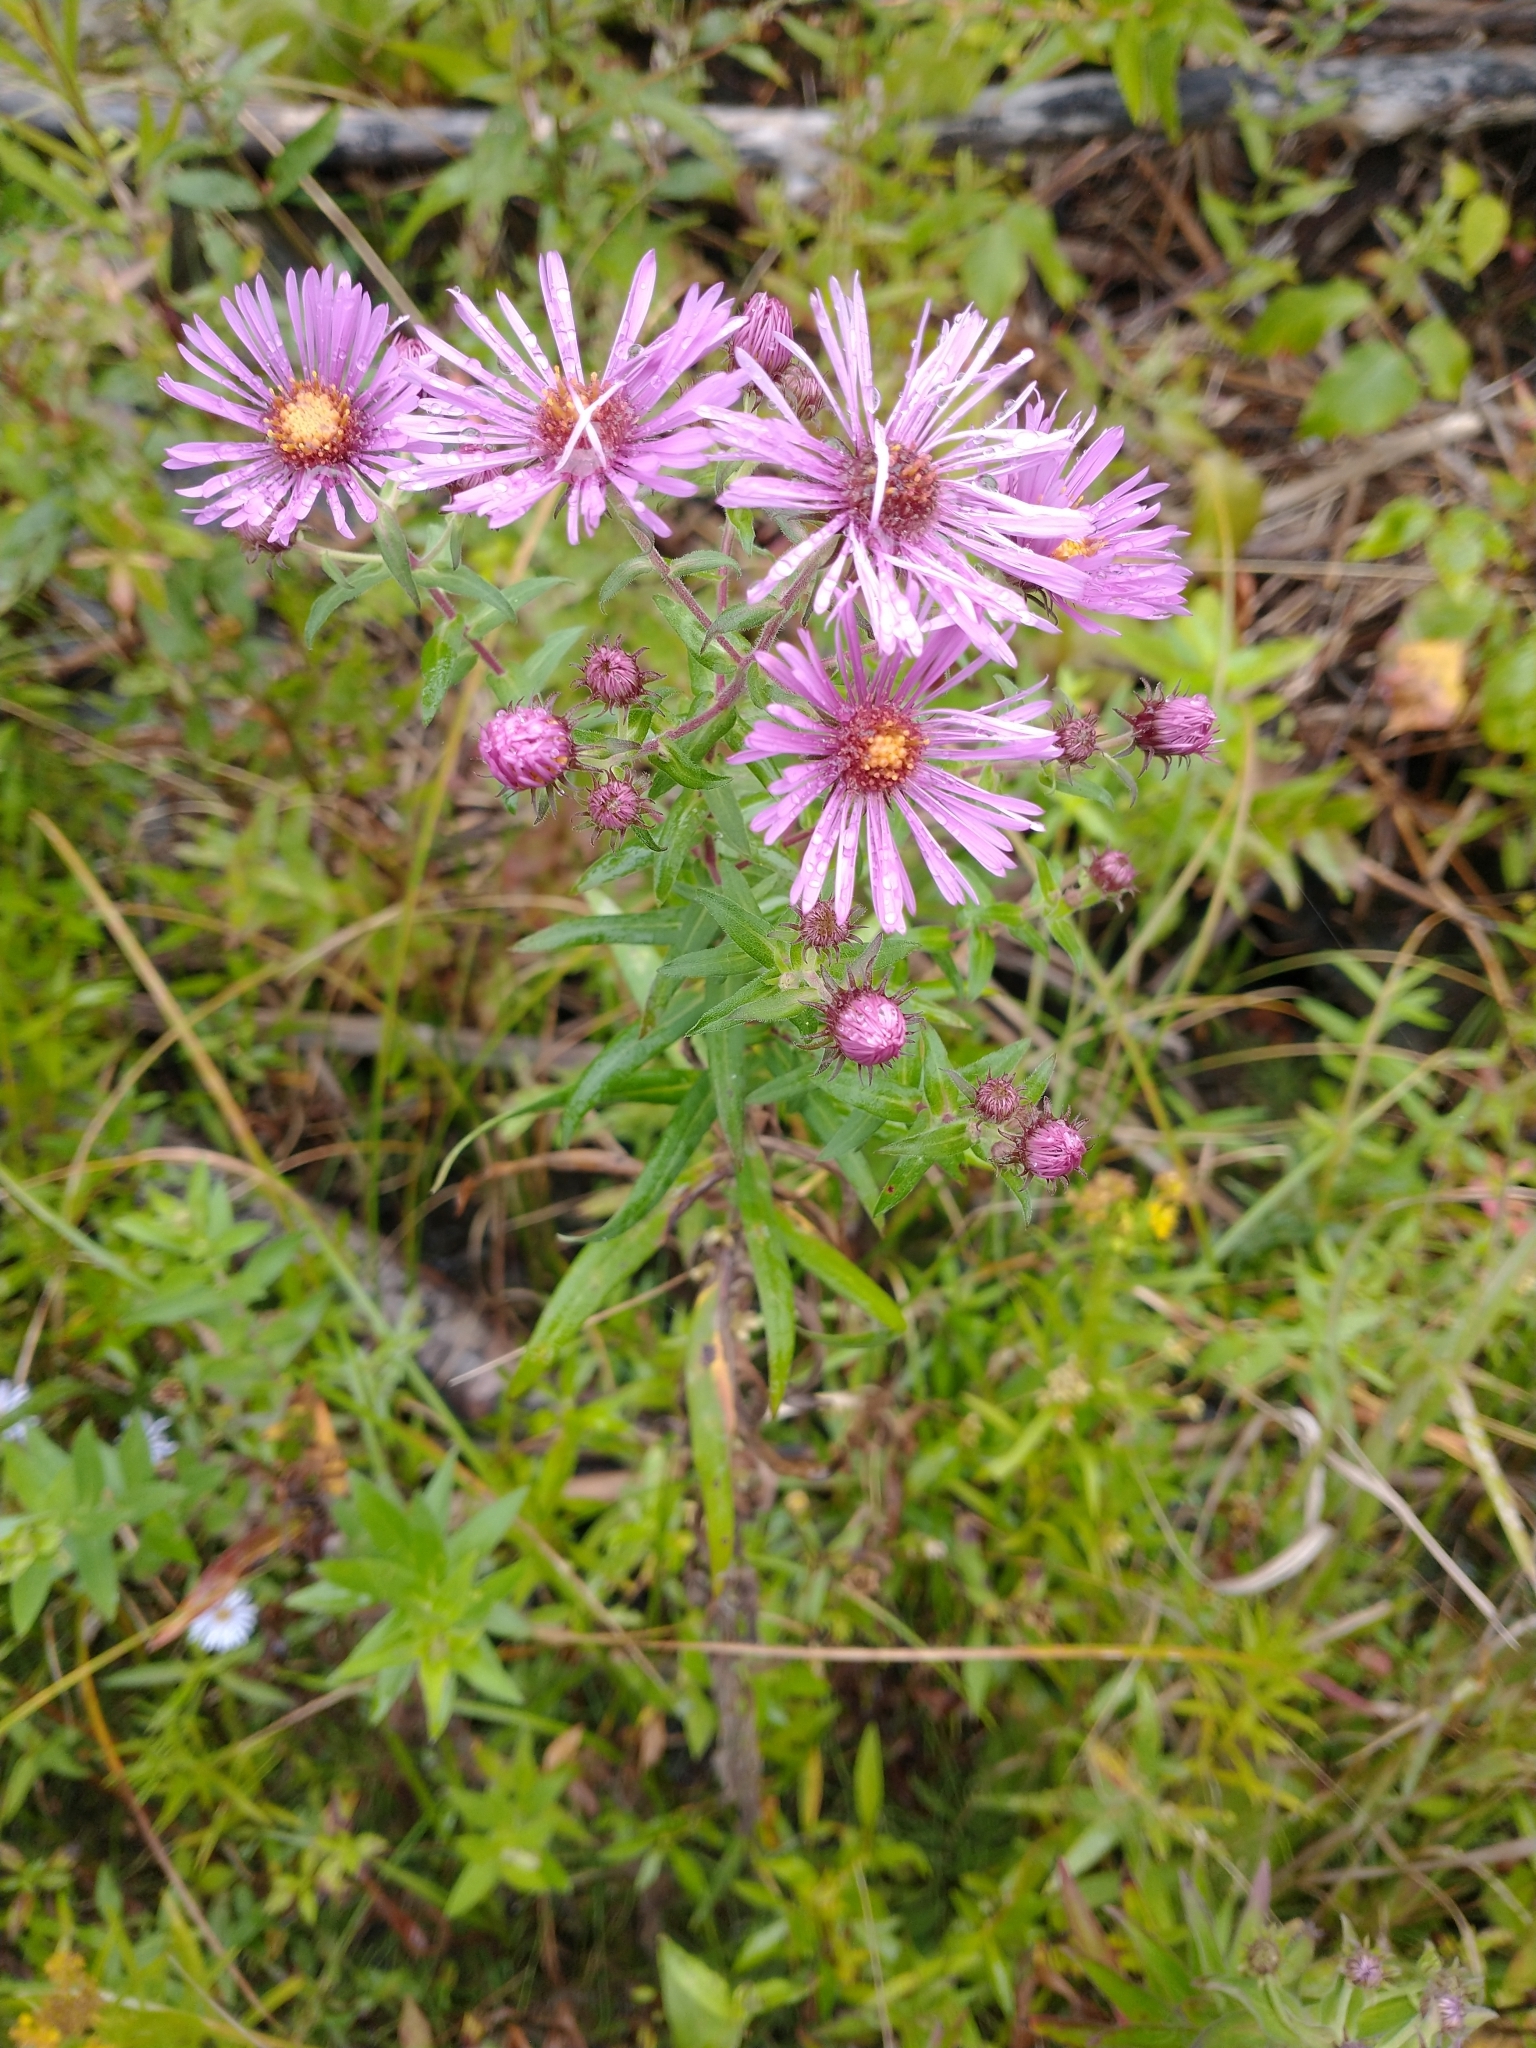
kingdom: Plantae
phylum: Tracheophyta
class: Magnoliopsida
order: Asterales
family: Asteraceae
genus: Symphyotrichum
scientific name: Symphyotrichum novae-angliae
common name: Michaelmas daisy
